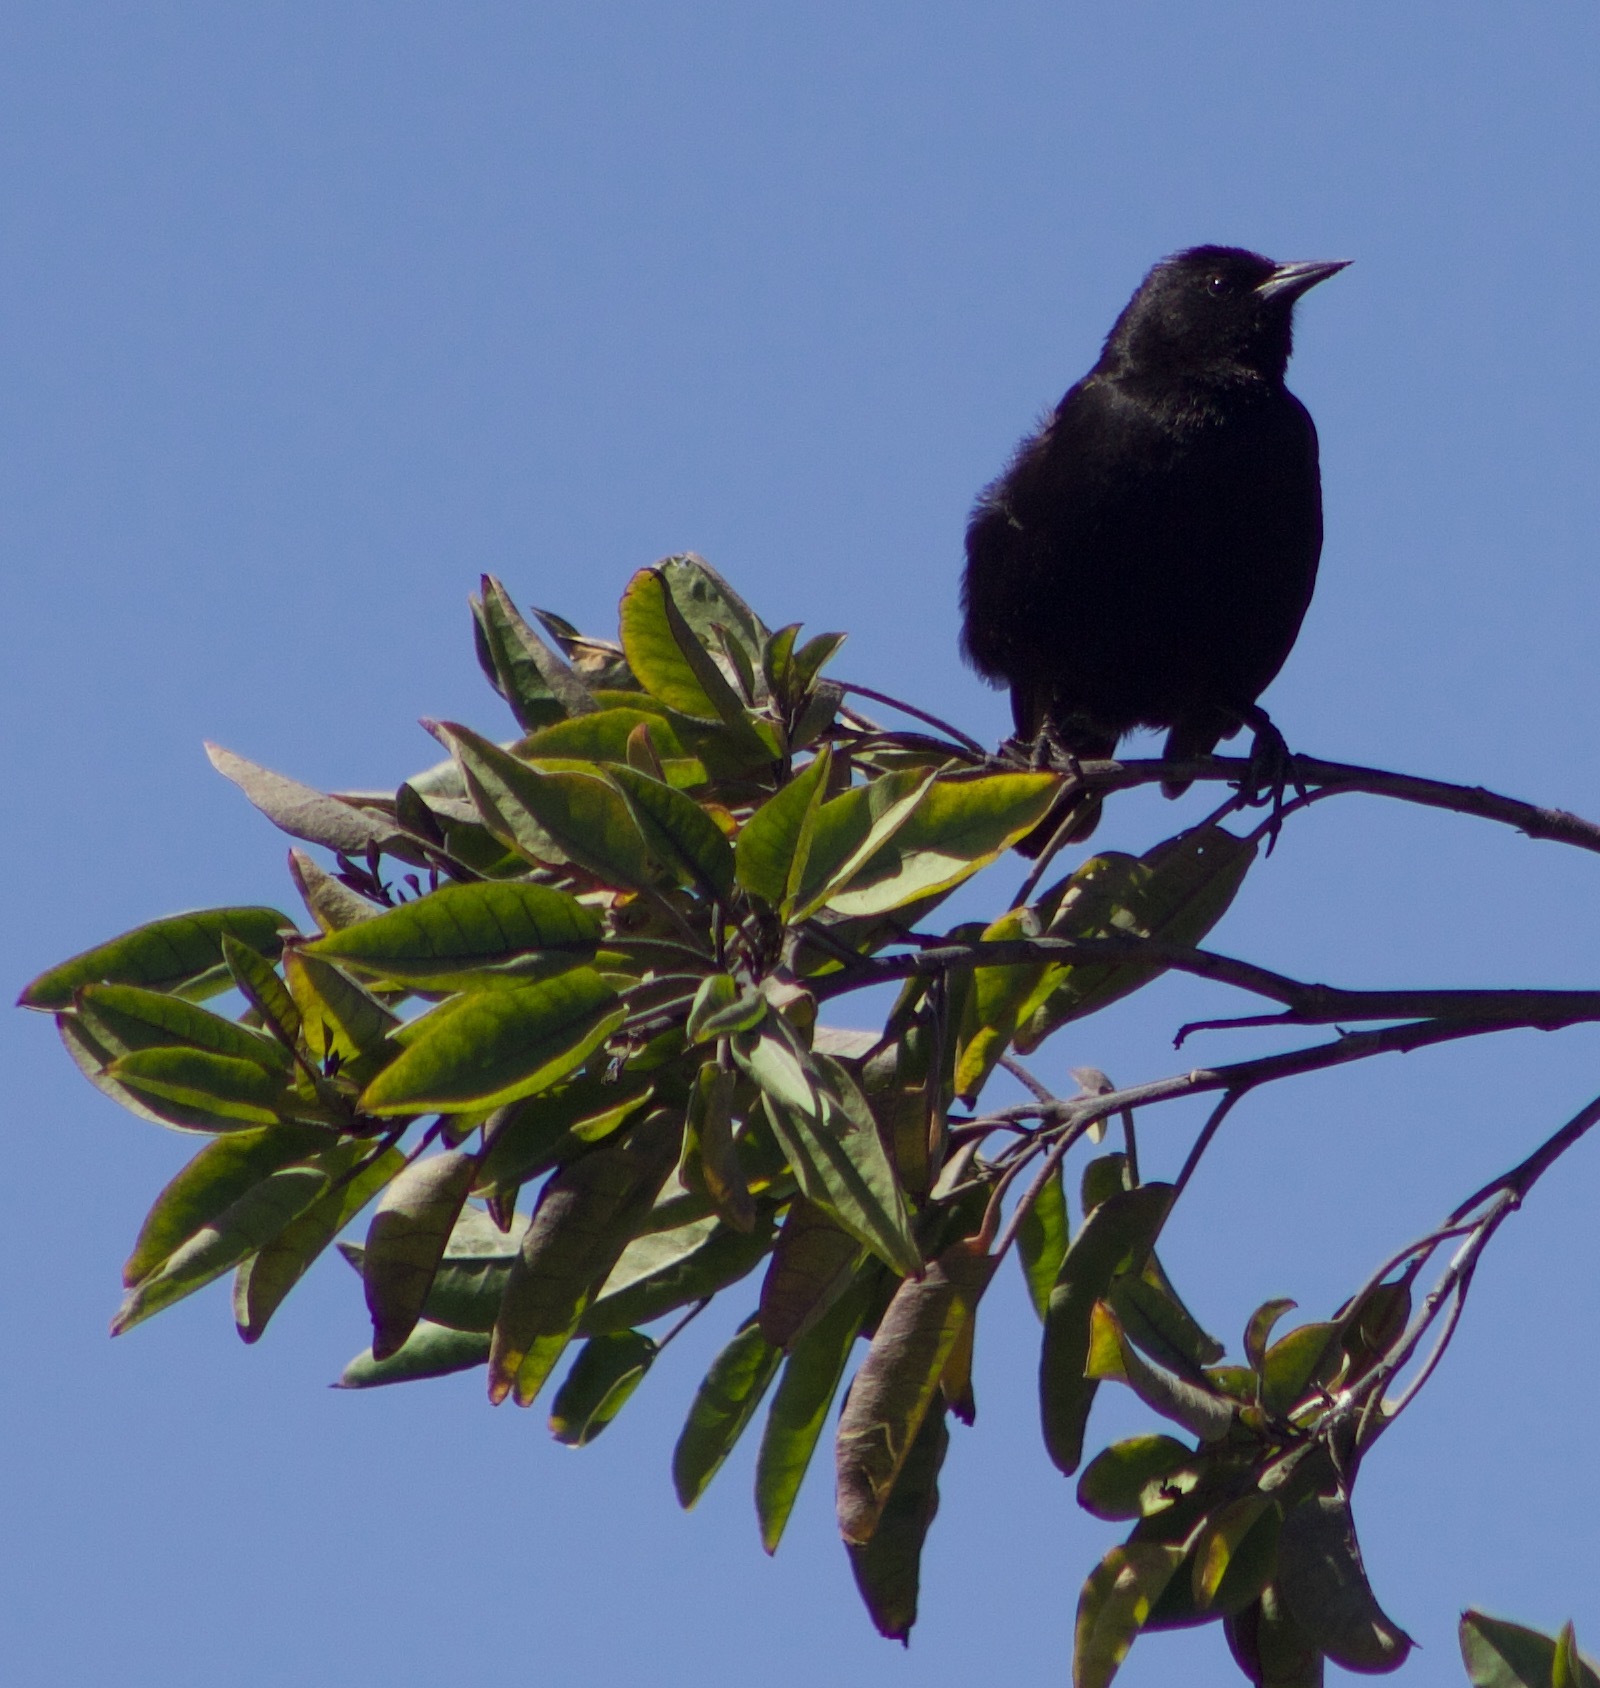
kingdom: Animalia
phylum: Chordata
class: Aves
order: Passeriformes
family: Icteridae
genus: Curaeus
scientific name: Curaeus curaeus
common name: Austral blackbird
